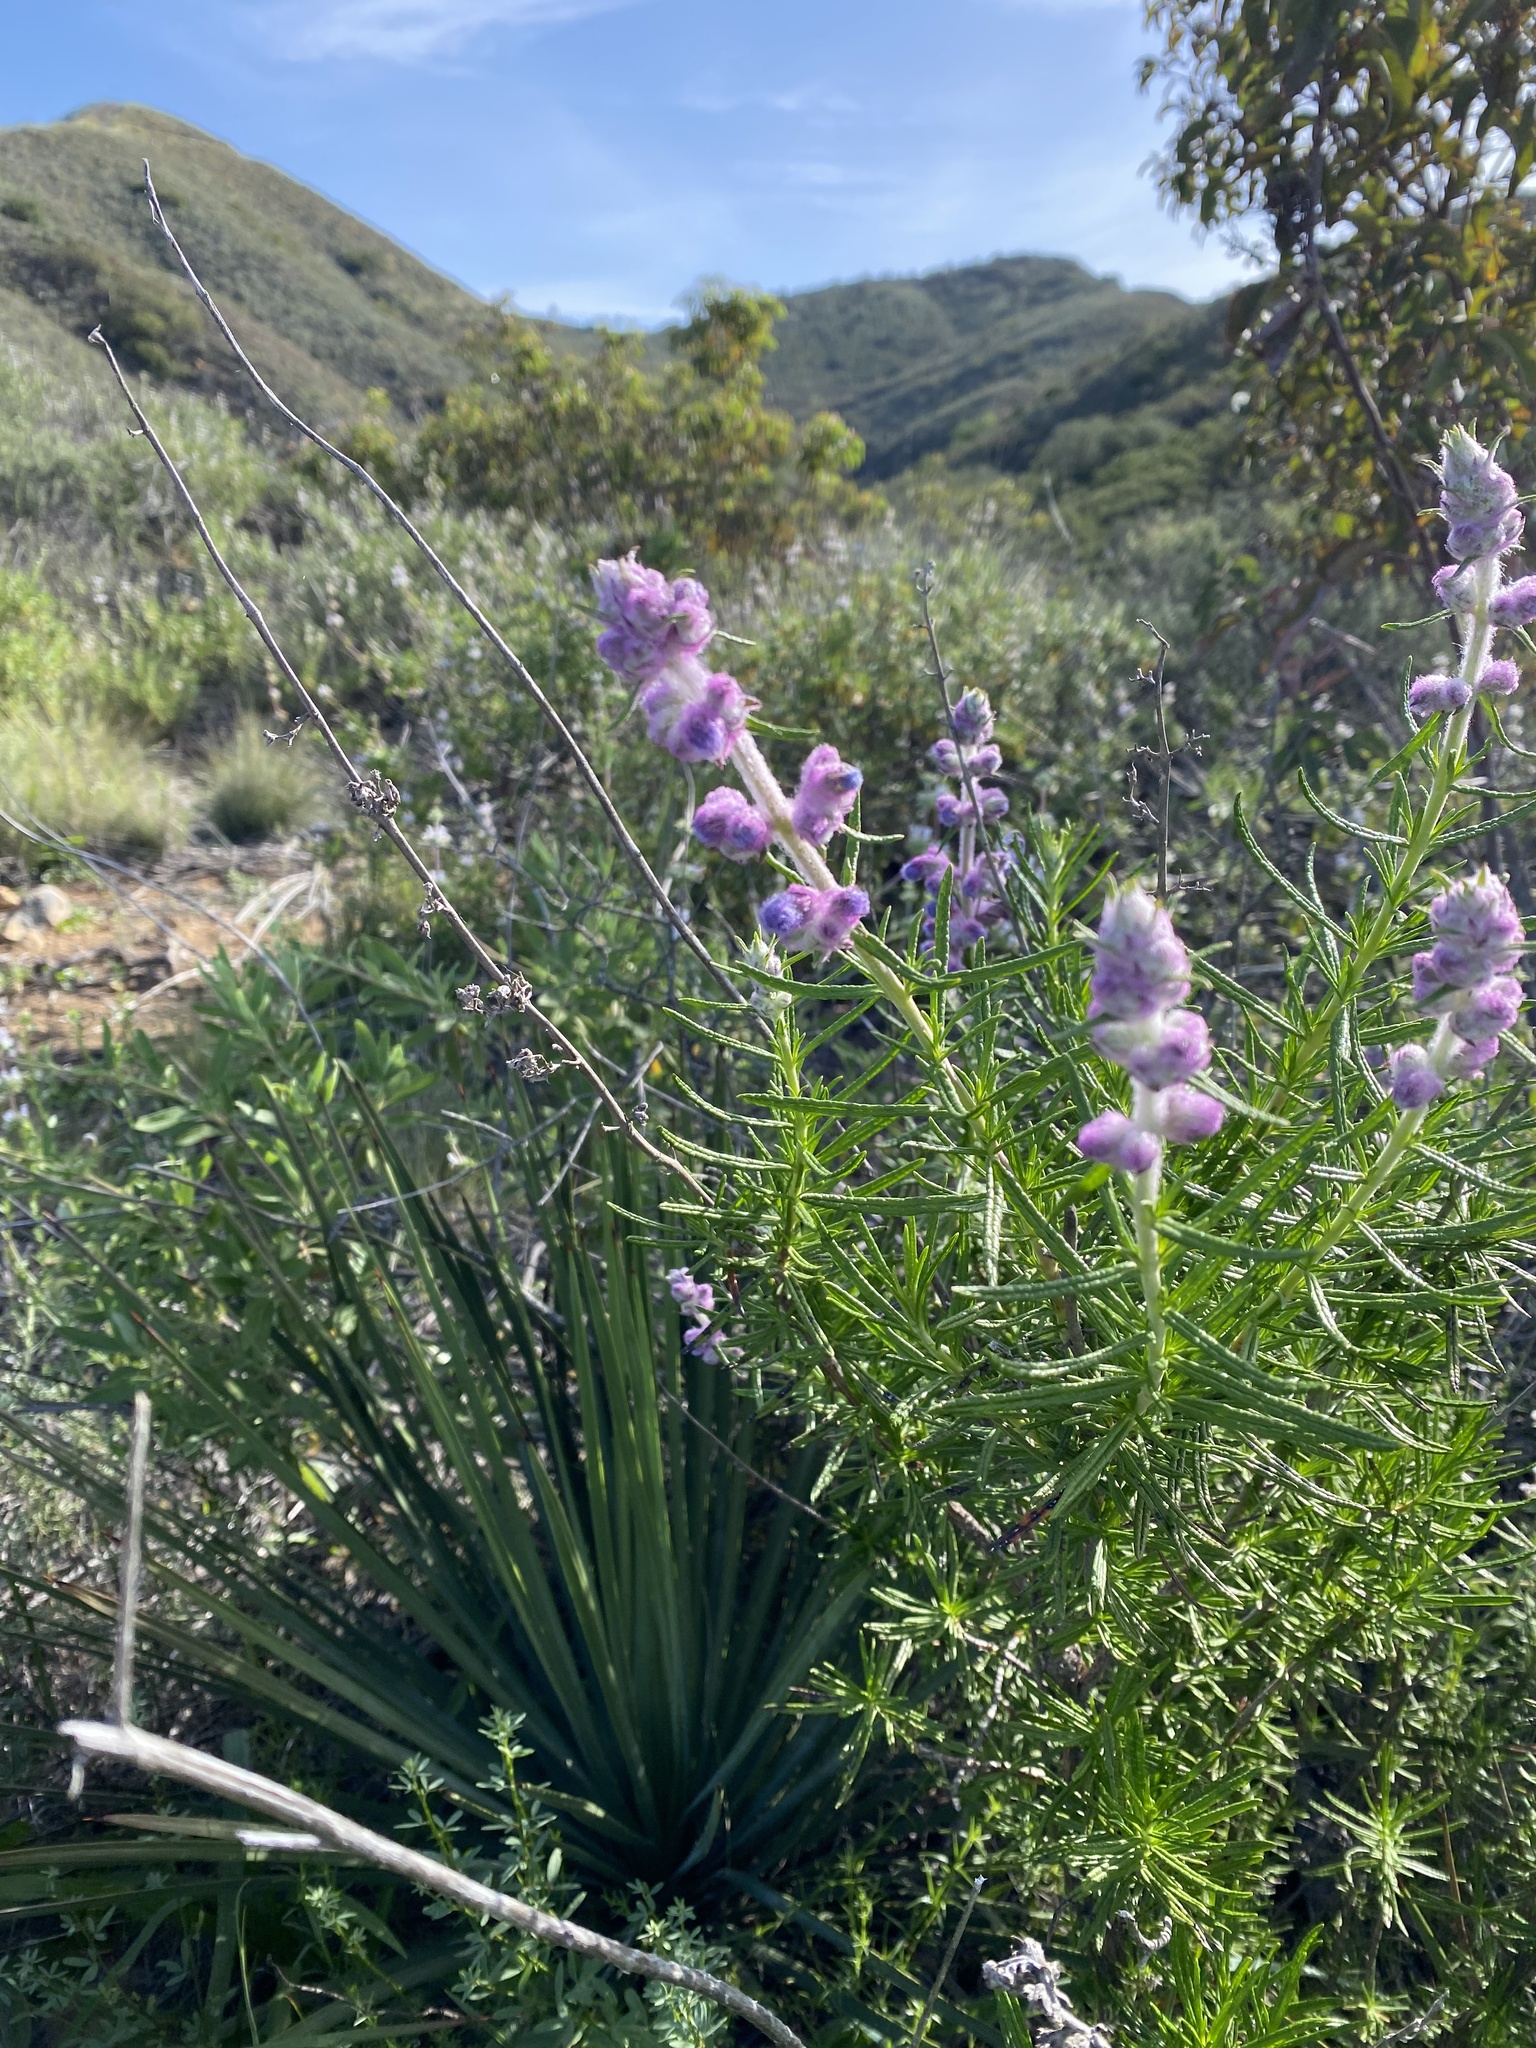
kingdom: Plantae
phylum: Tracheophyta
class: Magnoliopsida
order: Lamiales
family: Lamiaceae
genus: Trichostema
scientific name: Trichostema lanatum
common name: Woolly bluecurls
